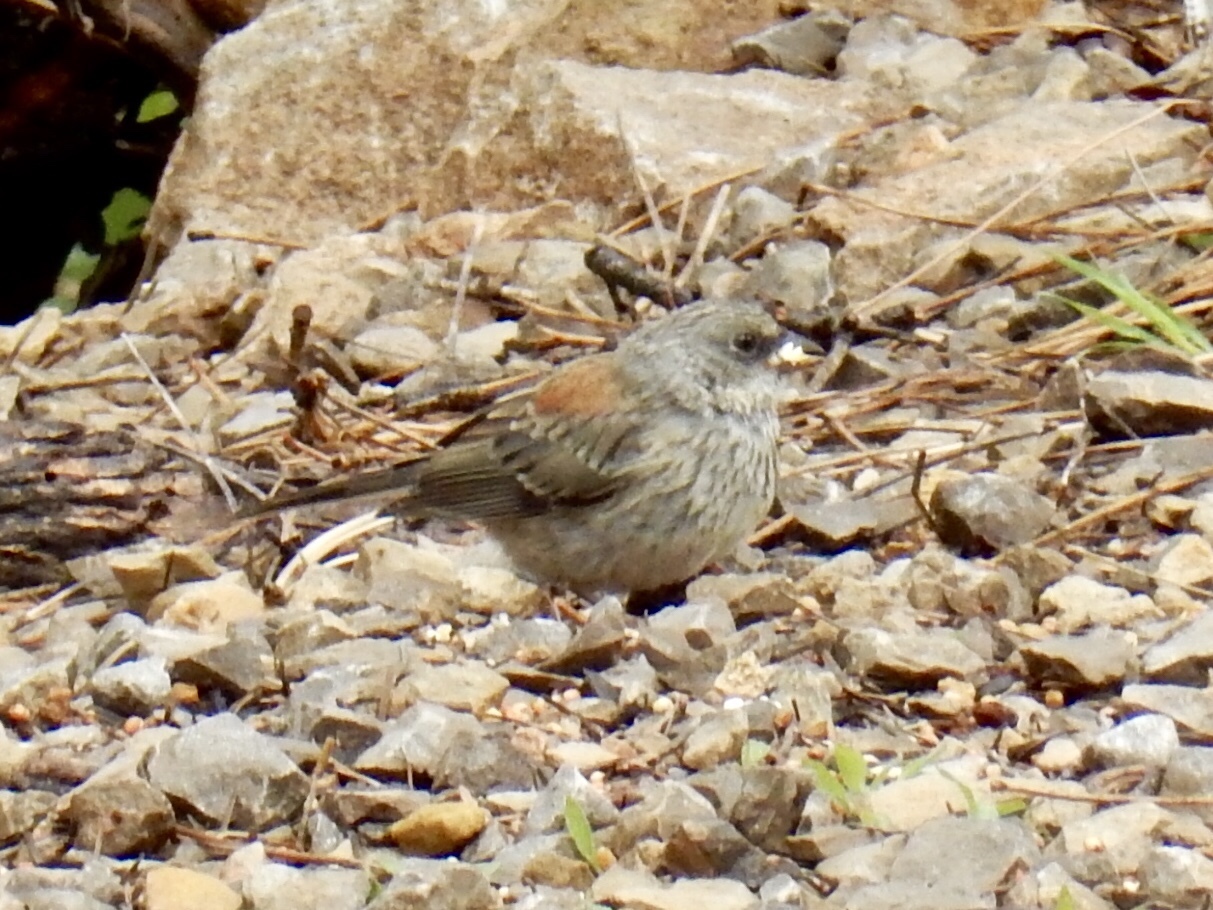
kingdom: Animalia
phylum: Chordata
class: Aves
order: Passeriformes
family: Passerellidae
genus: Junco
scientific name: Junco hyemalis
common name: Dark-eyed junco
